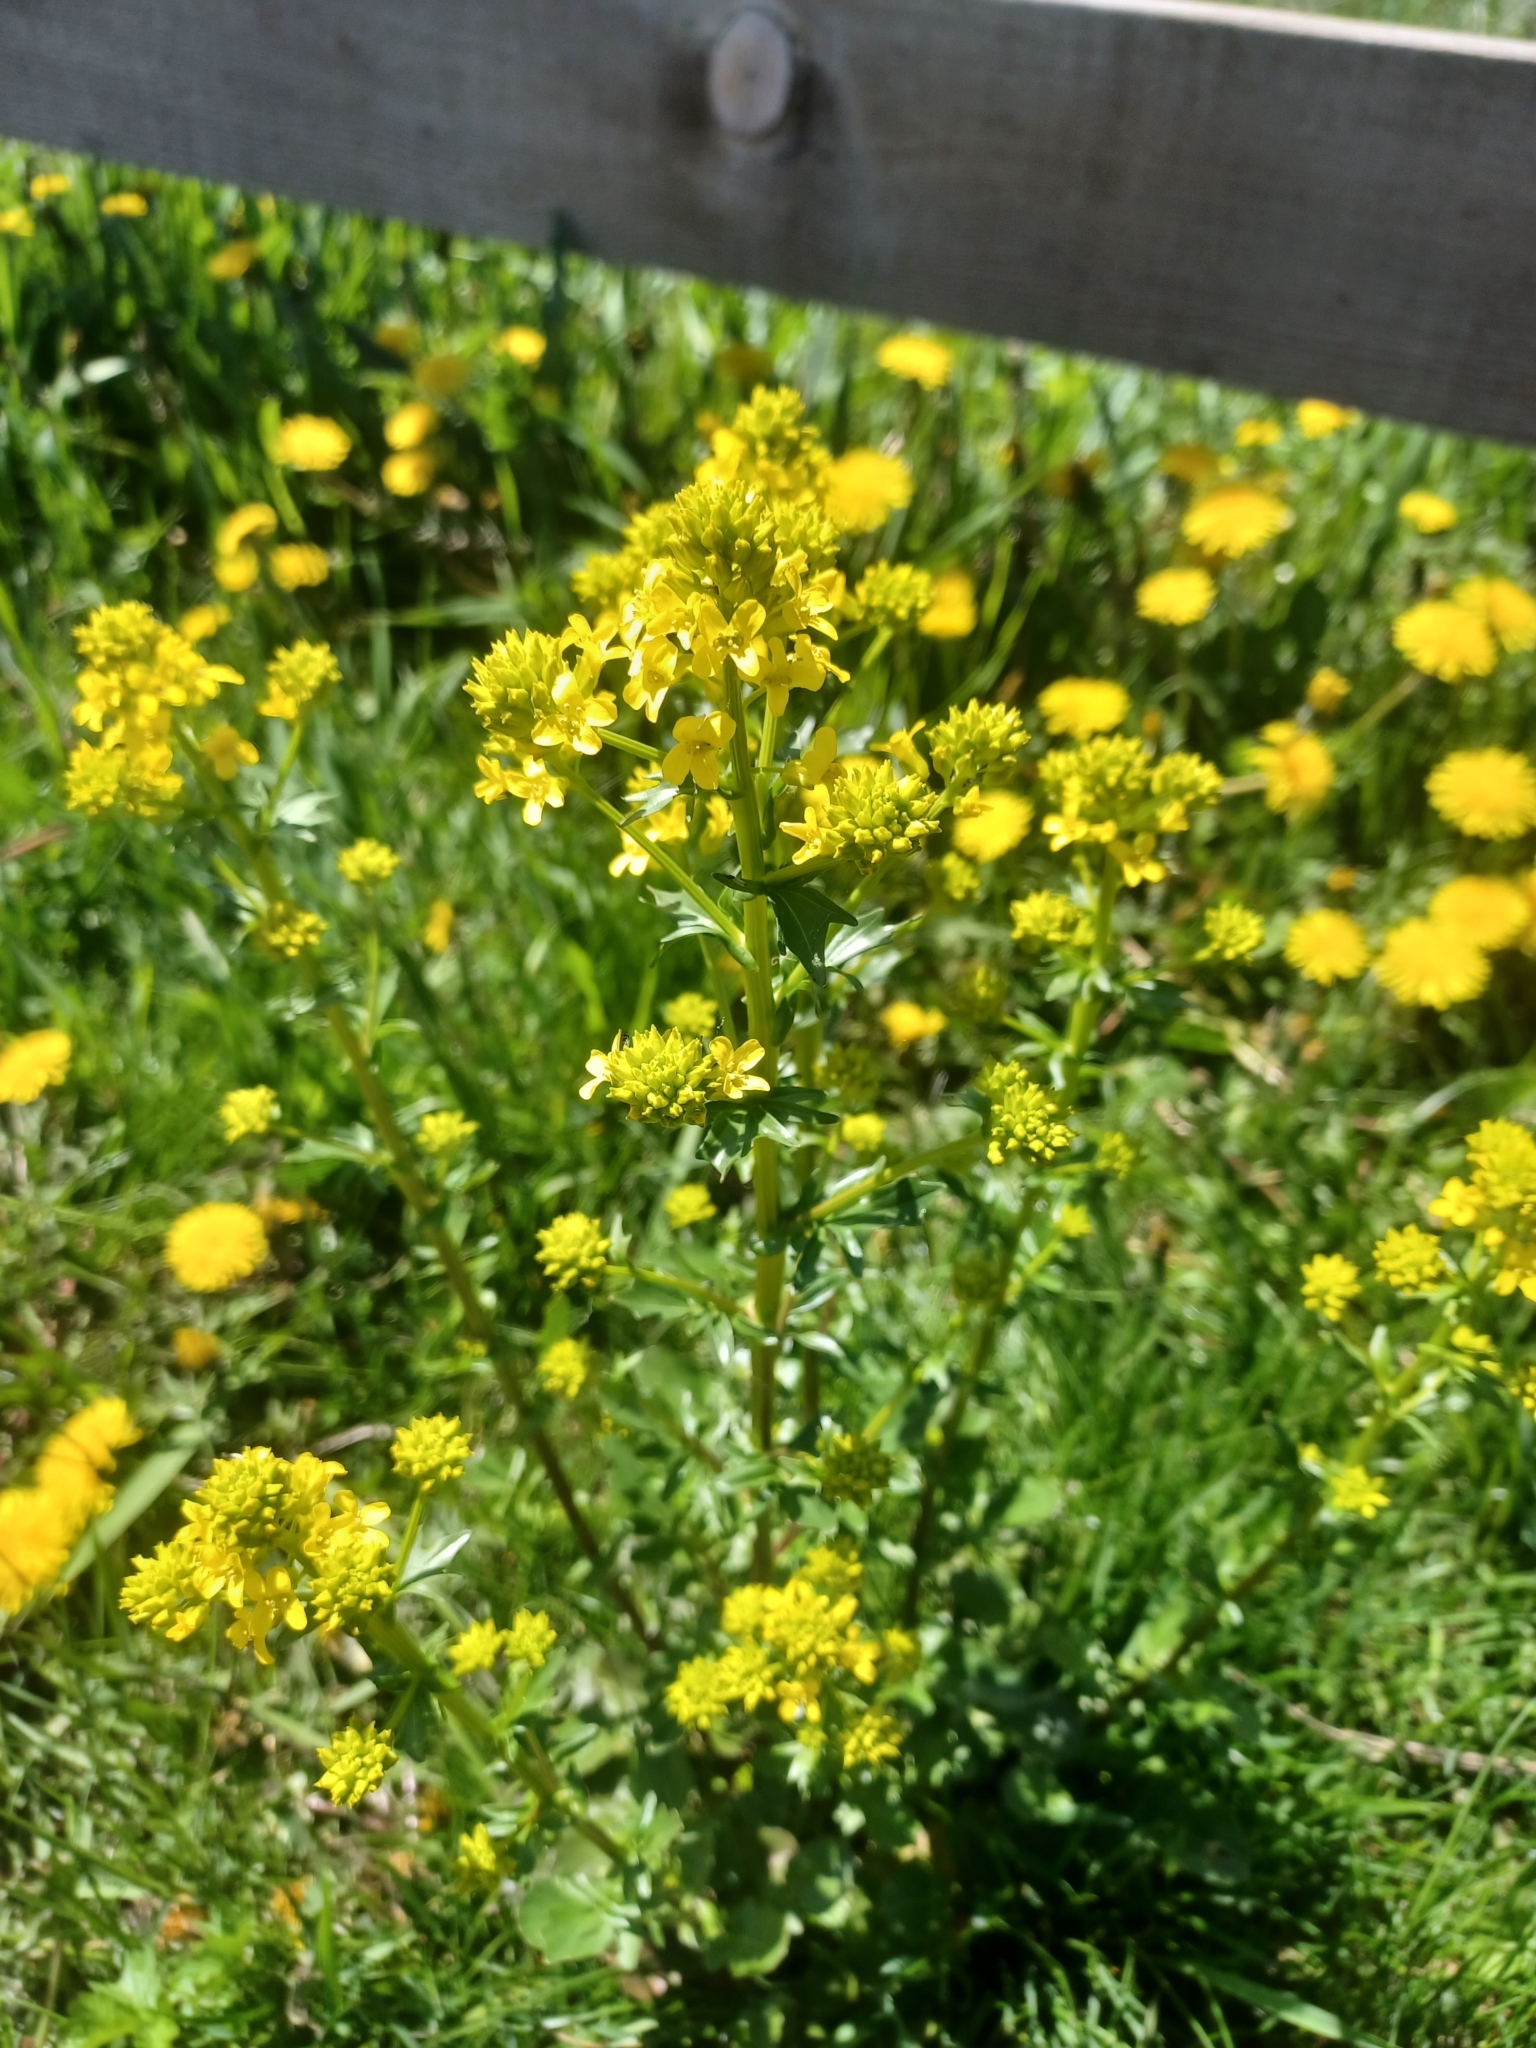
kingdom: Plantae
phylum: Tracheophyta
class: Magnoliopsida
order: Brassicales
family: Brassicaceae
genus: Barbarea
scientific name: Barbarea vulgaris
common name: Cressy-greens
